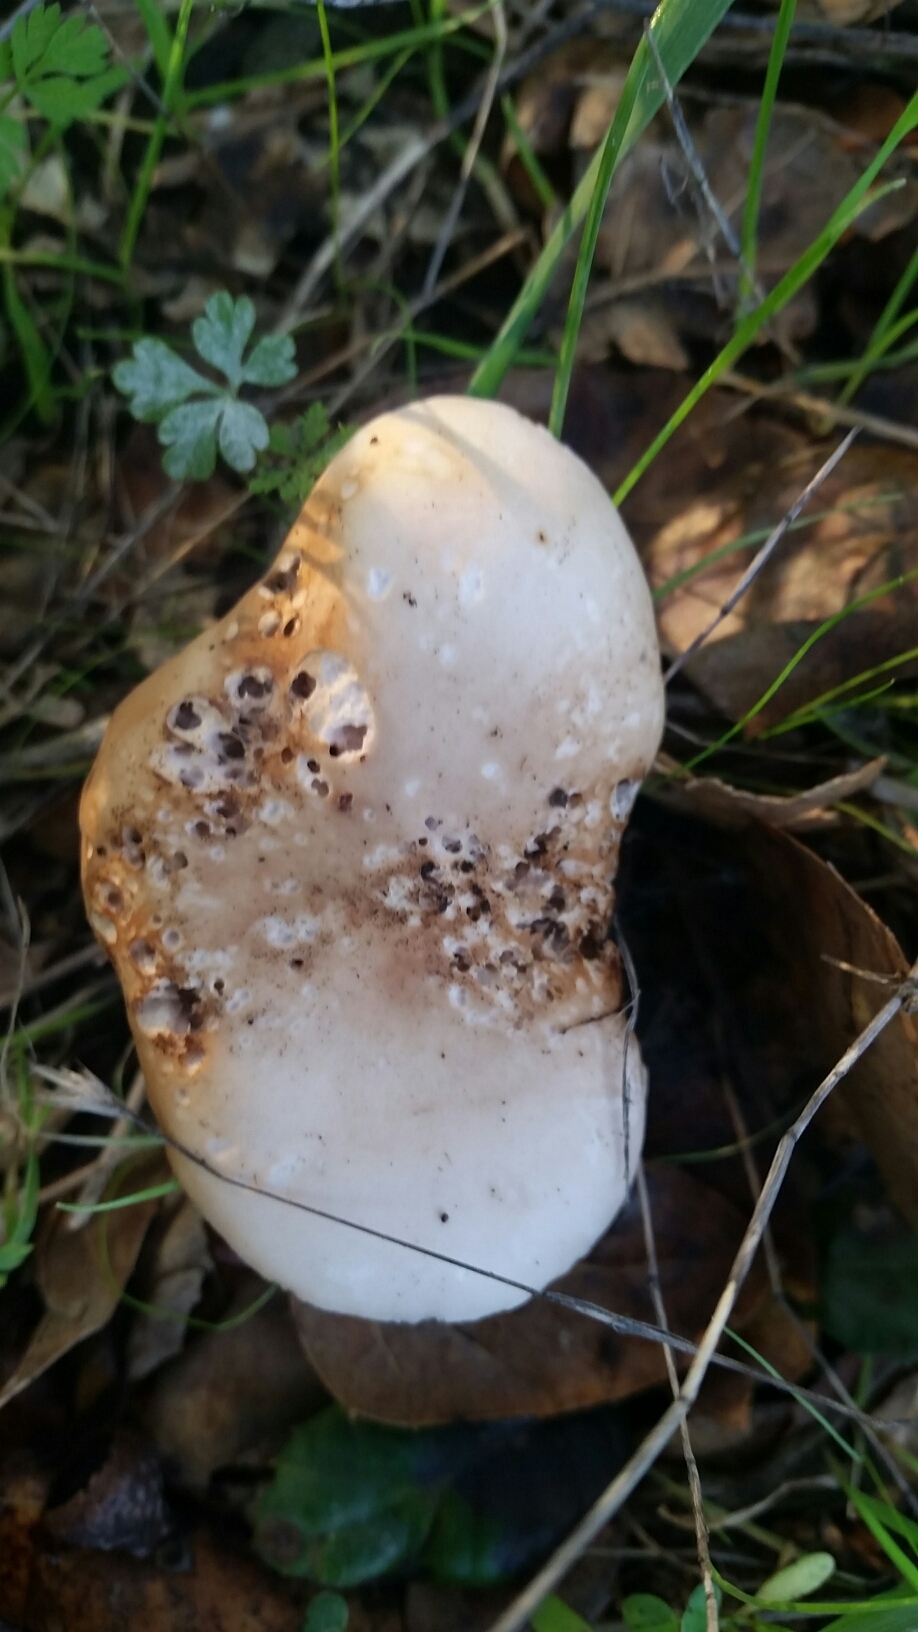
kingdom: Fungi
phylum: Basidiomycota
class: Agaricomycetes
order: Agaricales
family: Tricholomataceae
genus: Collybia
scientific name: Collybia
